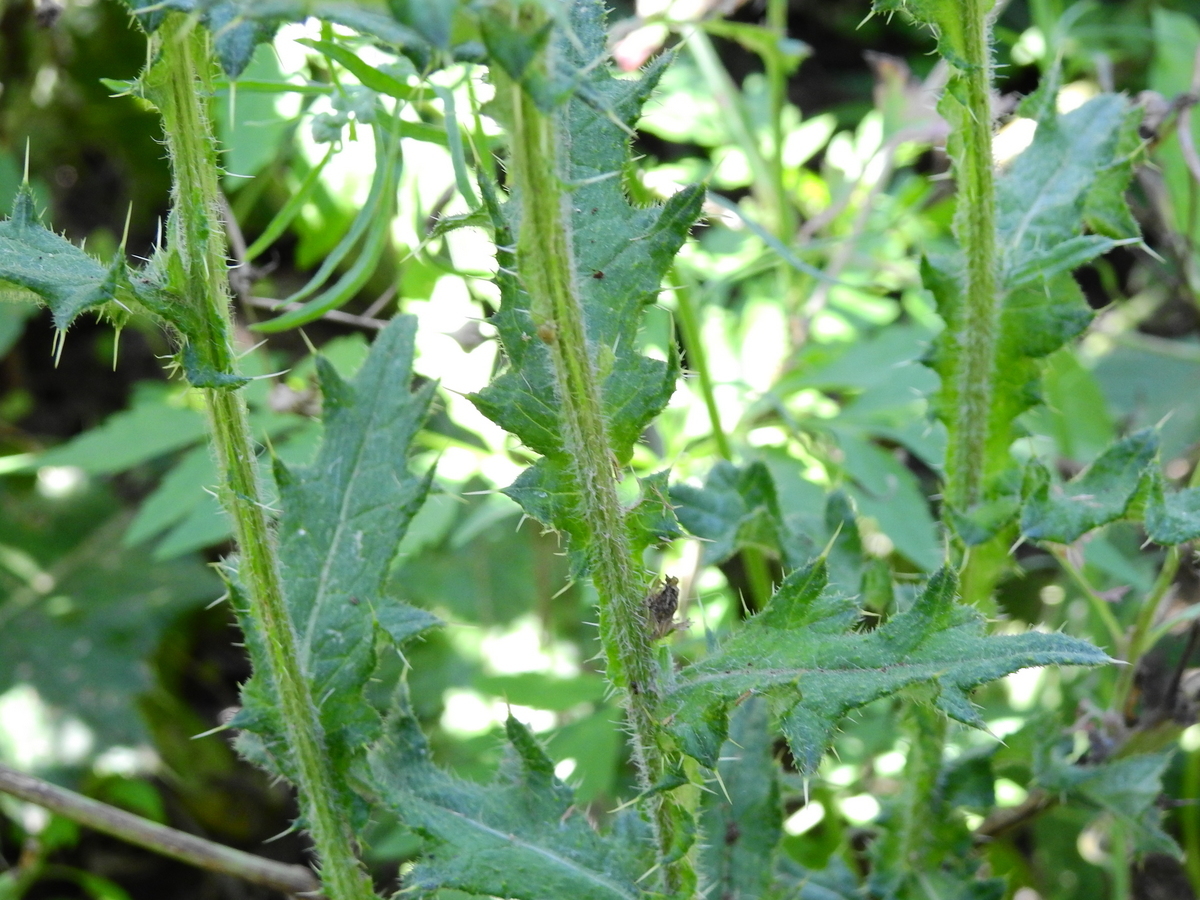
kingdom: Plantae
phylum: Tracheophyta
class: Magnoliopsida
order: Asterales
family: Asteraceae
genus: Cirsium
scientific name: Cirsium vulgare
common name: Bull thistle
